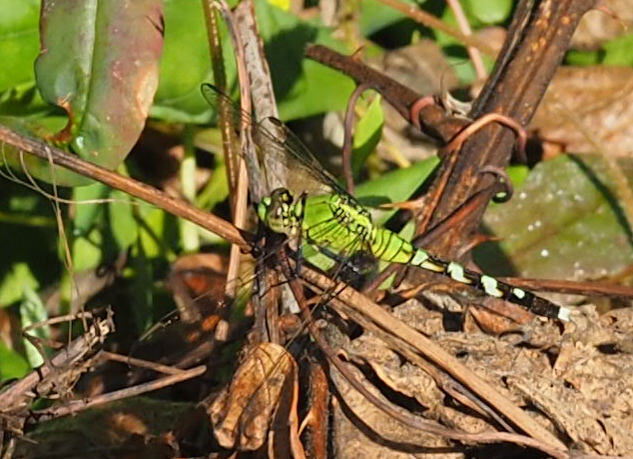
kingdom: Animalia
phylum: Arthropoda
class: Insecta
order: Odonata
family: Libellulidae
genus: Erythemis
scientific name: Erythemis simplicicollis
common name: Eastern pondhawk
